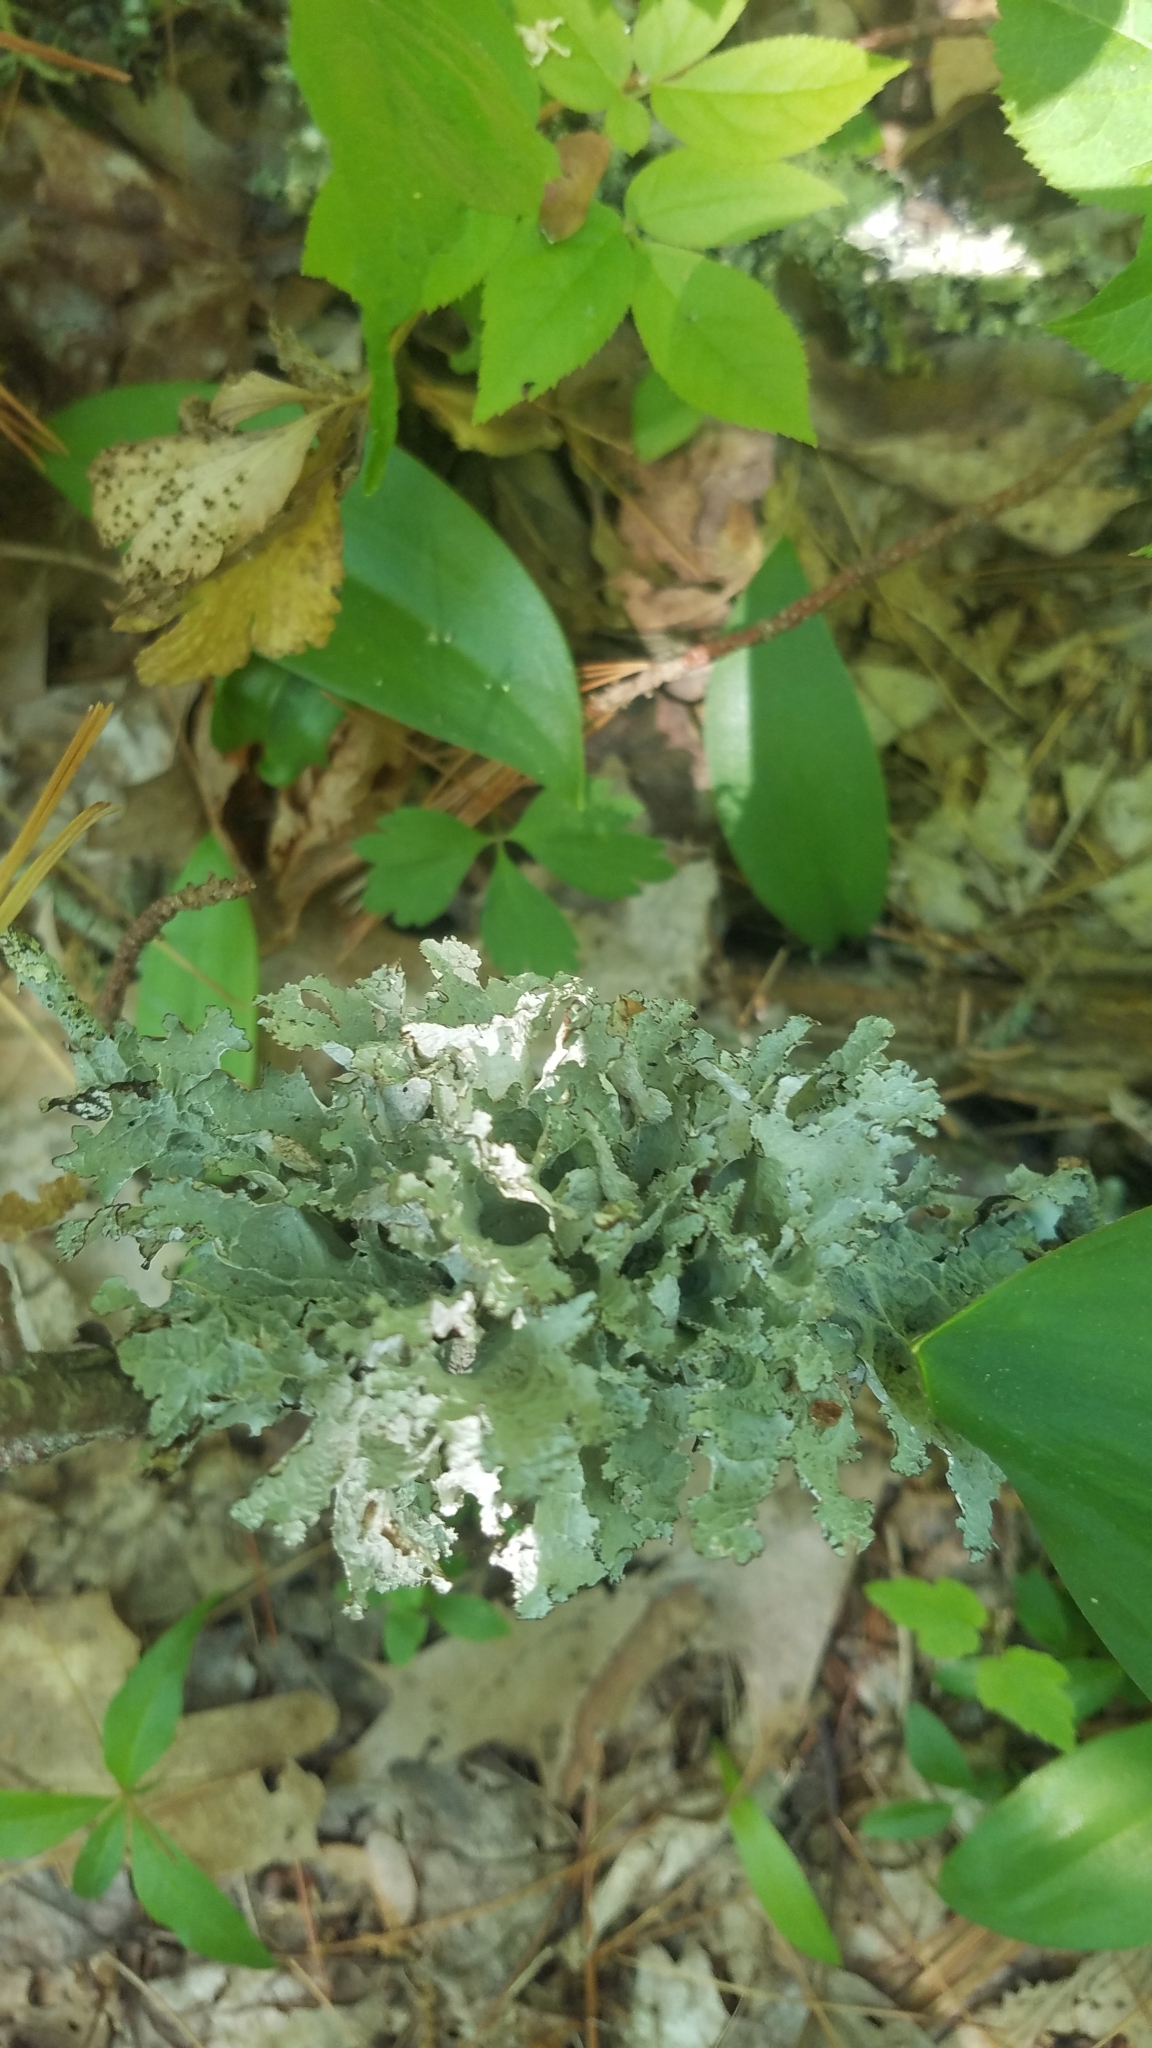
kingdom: Fungi
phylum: Ascomycota
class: Lecanoromycetes
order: Lecanorales
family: Parmeliaceae
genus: Platismatia
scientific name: Platismatia tuckermanii
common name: Crumpled rag lichen
